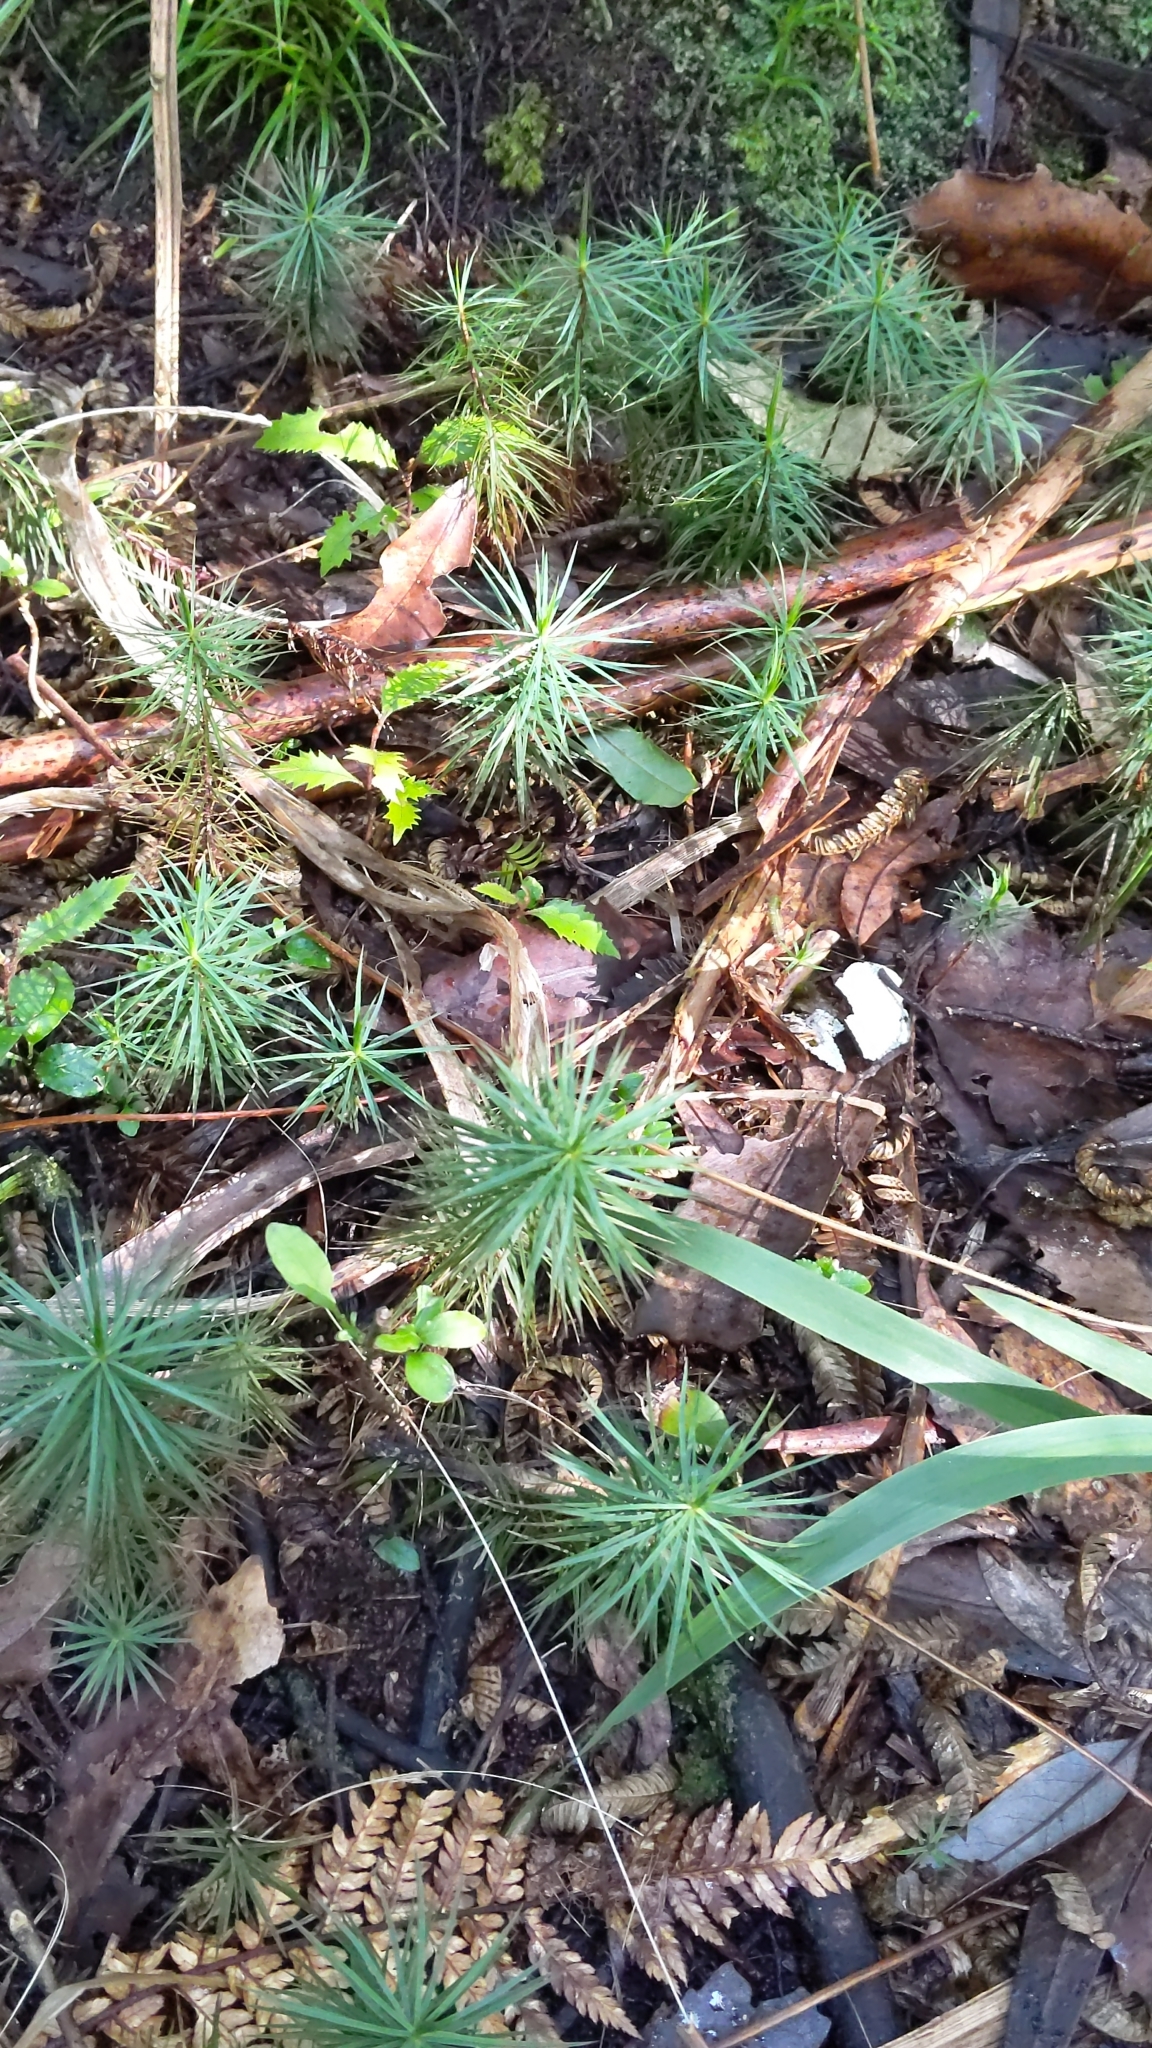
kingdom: Plantae
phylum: Bryophyta
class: Polytrichopsida
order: Polytrichales
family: Polytrichaceae
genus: Dawsonia
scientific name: Dawsonia superba
